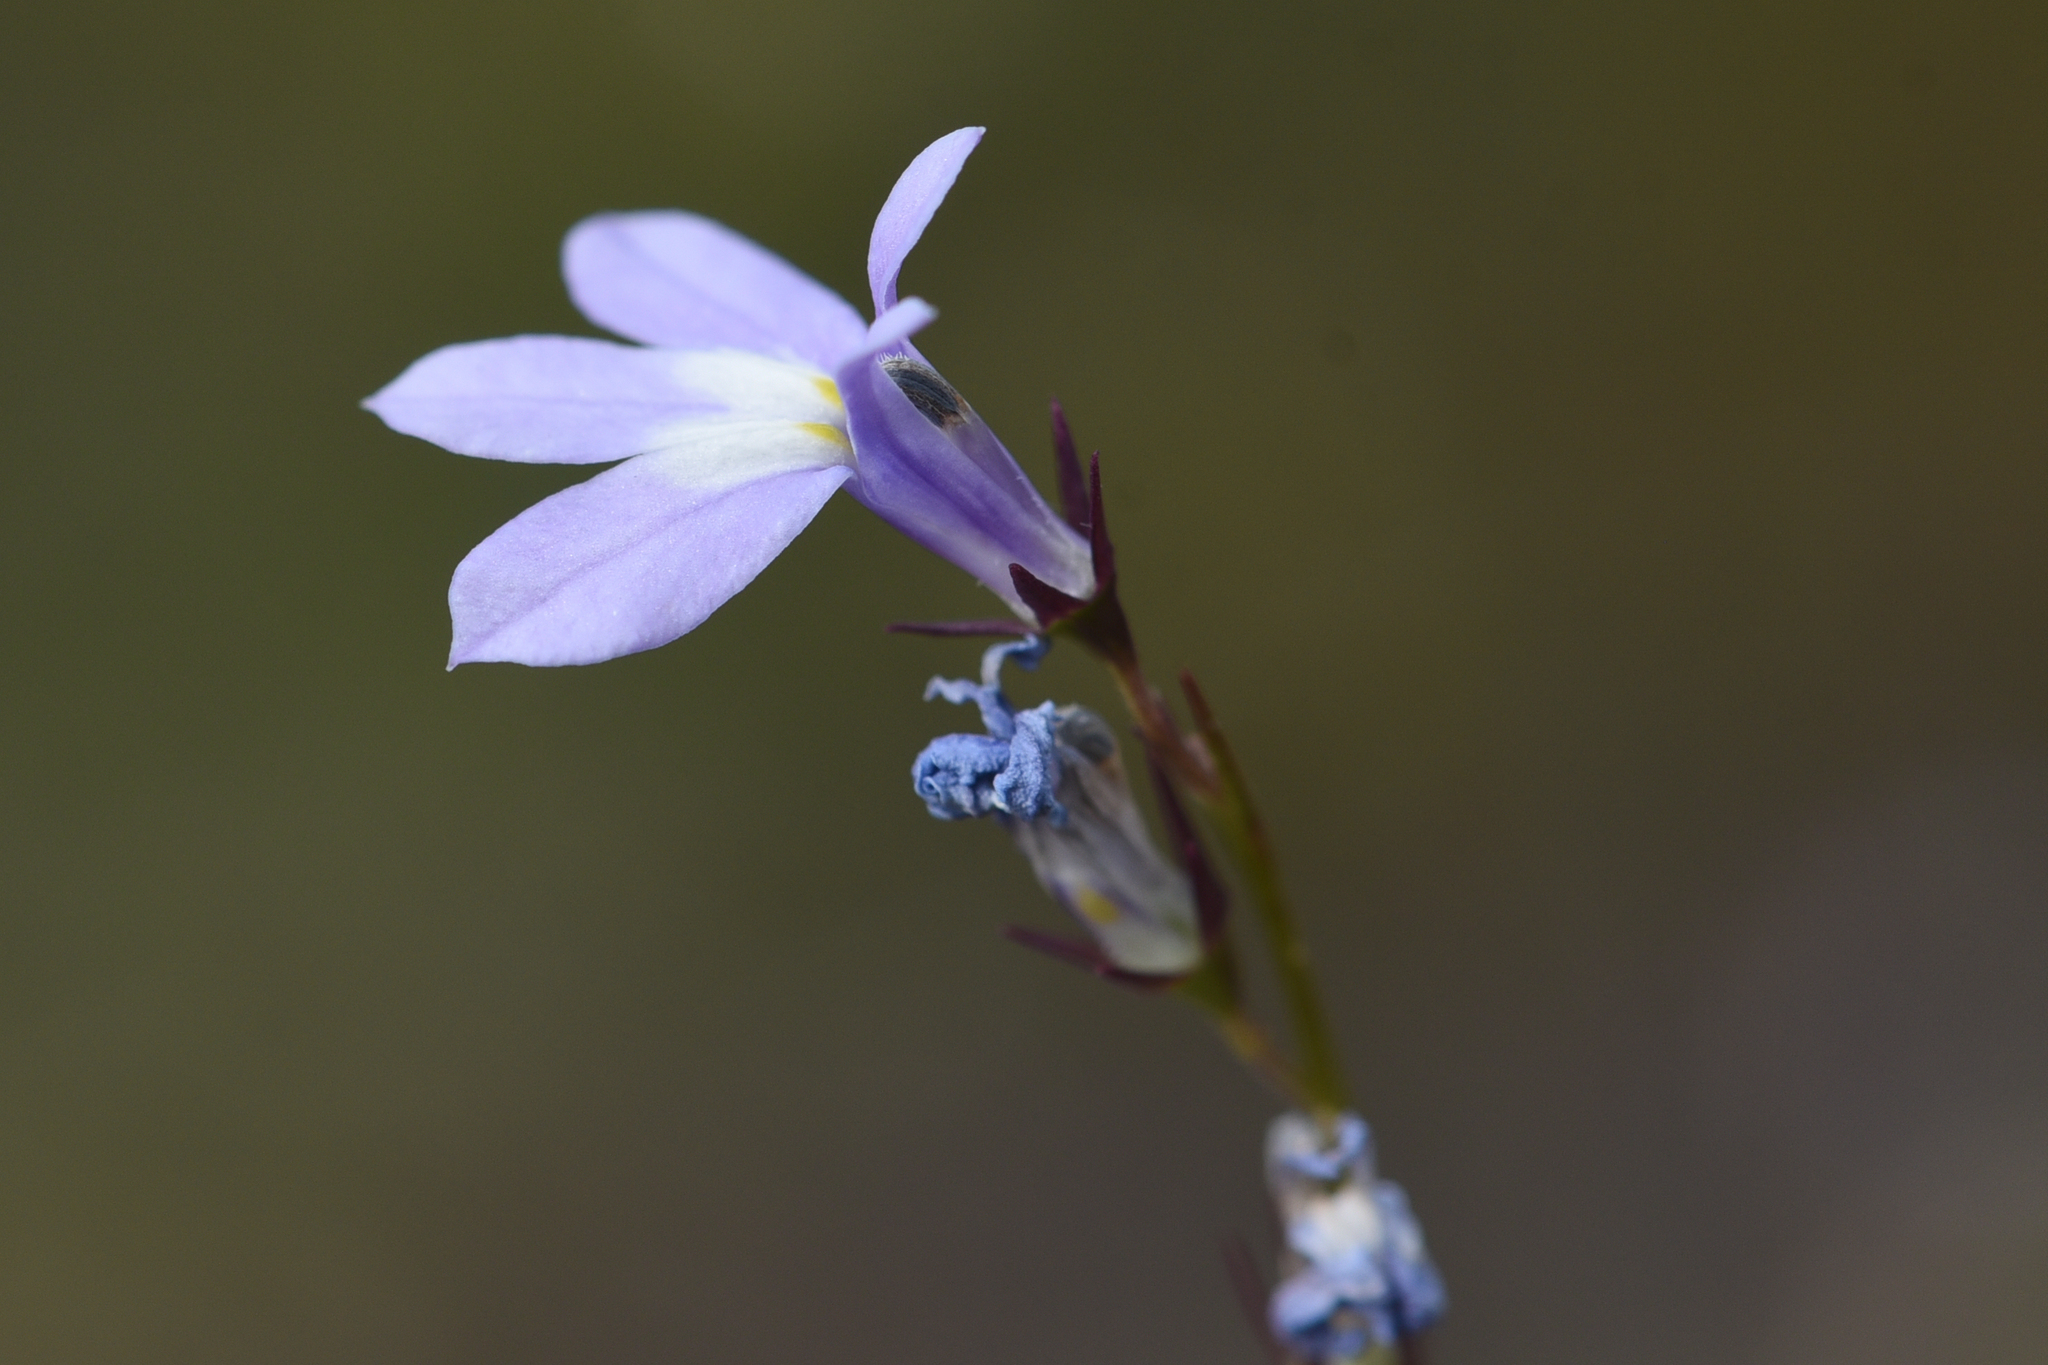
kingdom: Plantae
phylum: Tracheophyta
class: Magnoliopsida
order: Asterales
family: Campanulaceae
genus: Lobelia
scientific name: Lobelia kalmii
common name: Kalm's lobelia
